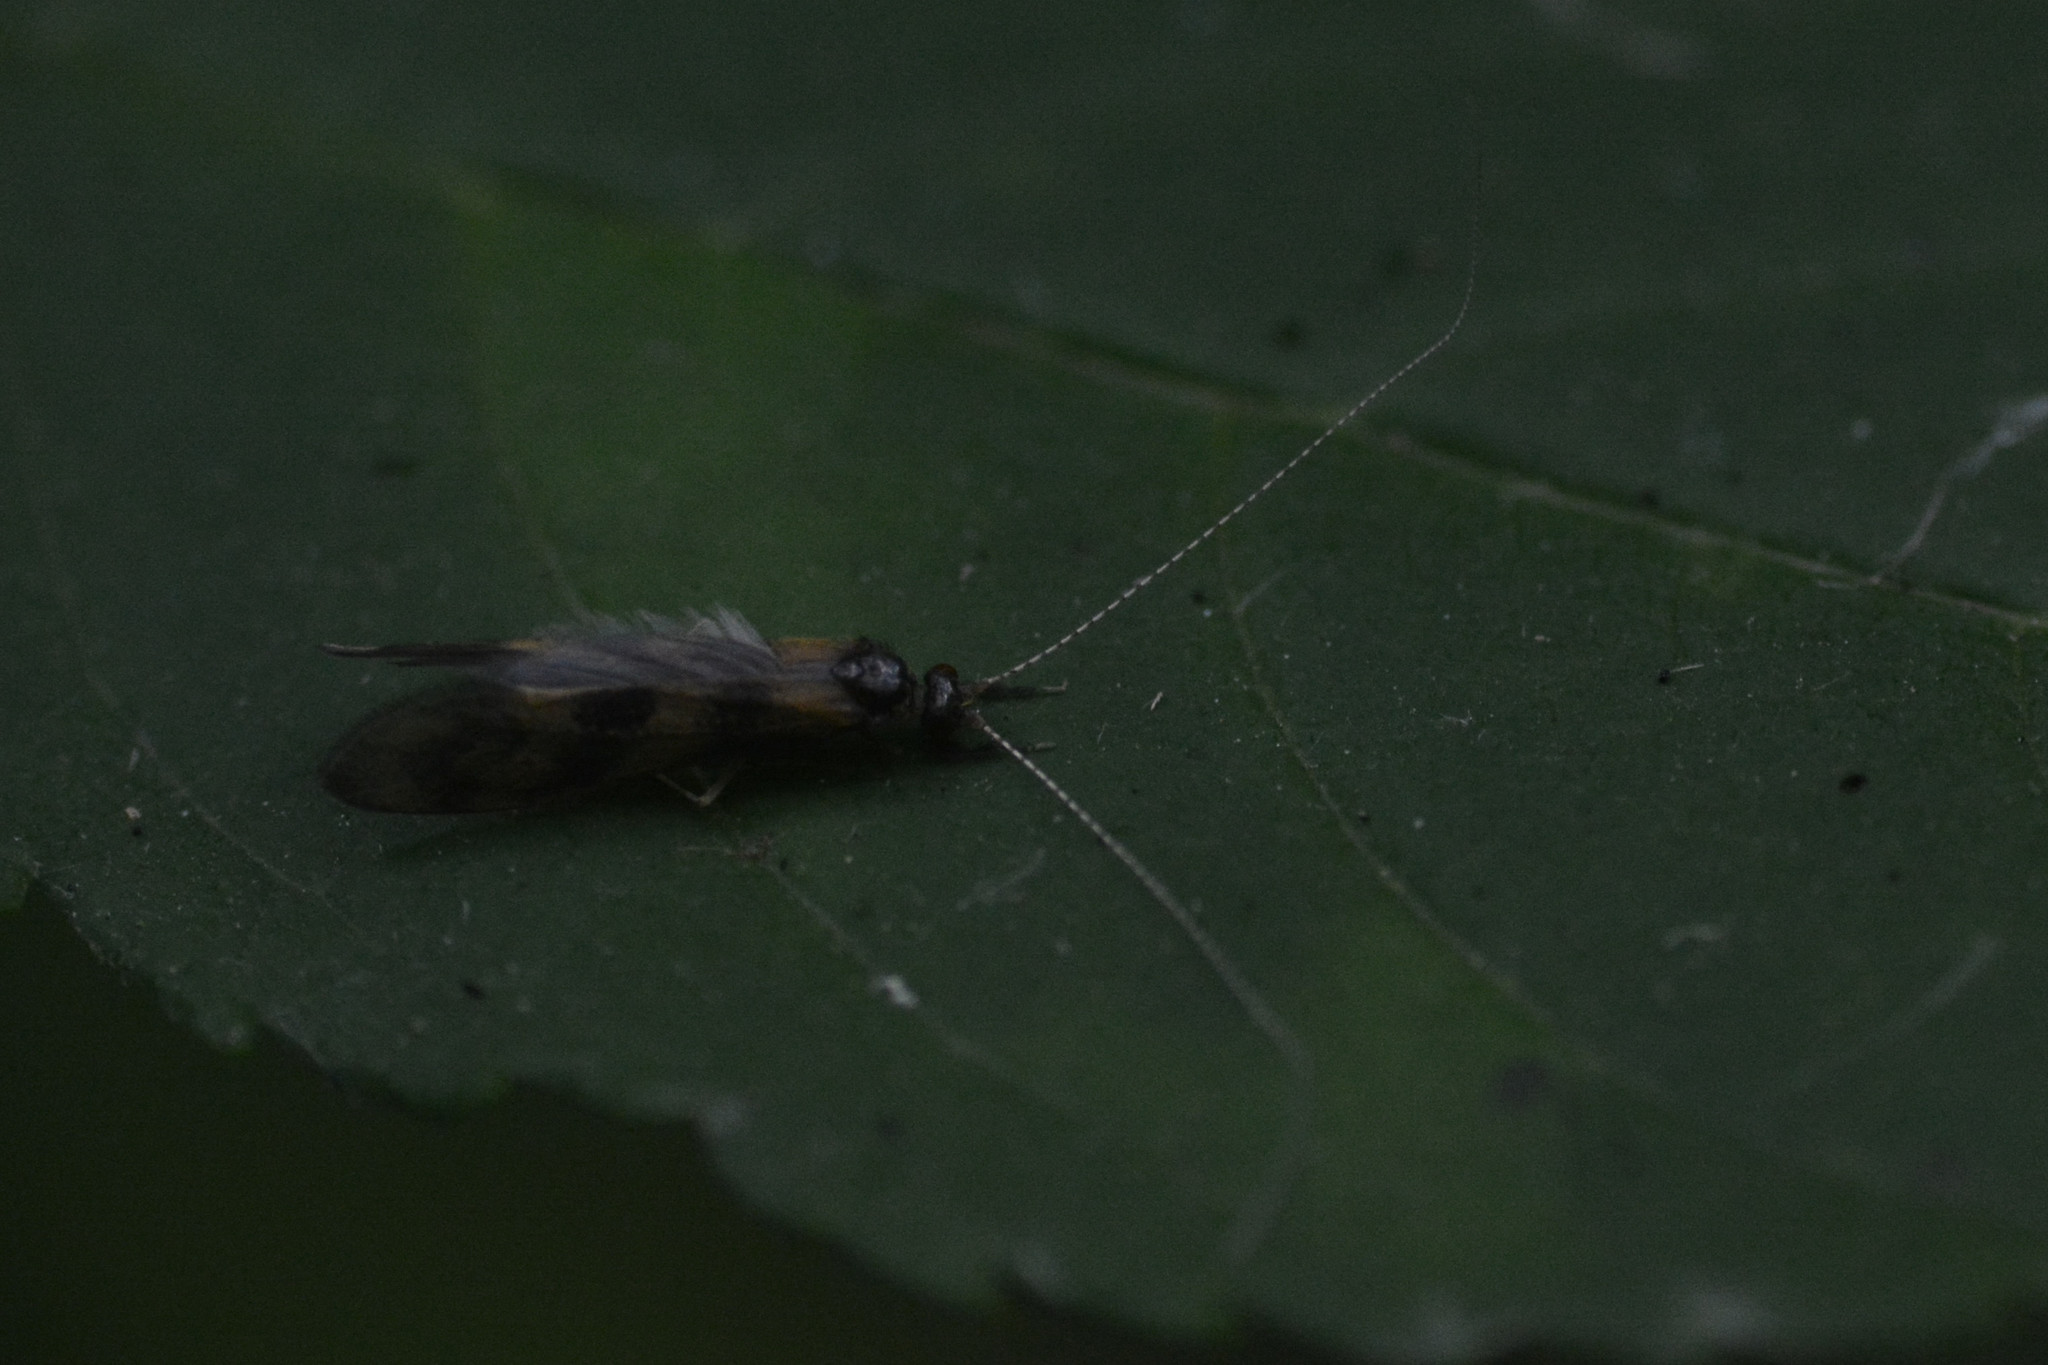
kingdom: Animalia
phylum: Arthropoda
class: Insecta
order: Trichoptera
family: Leptoceridae
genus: Mystacides
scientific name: Mystacides longicornis
